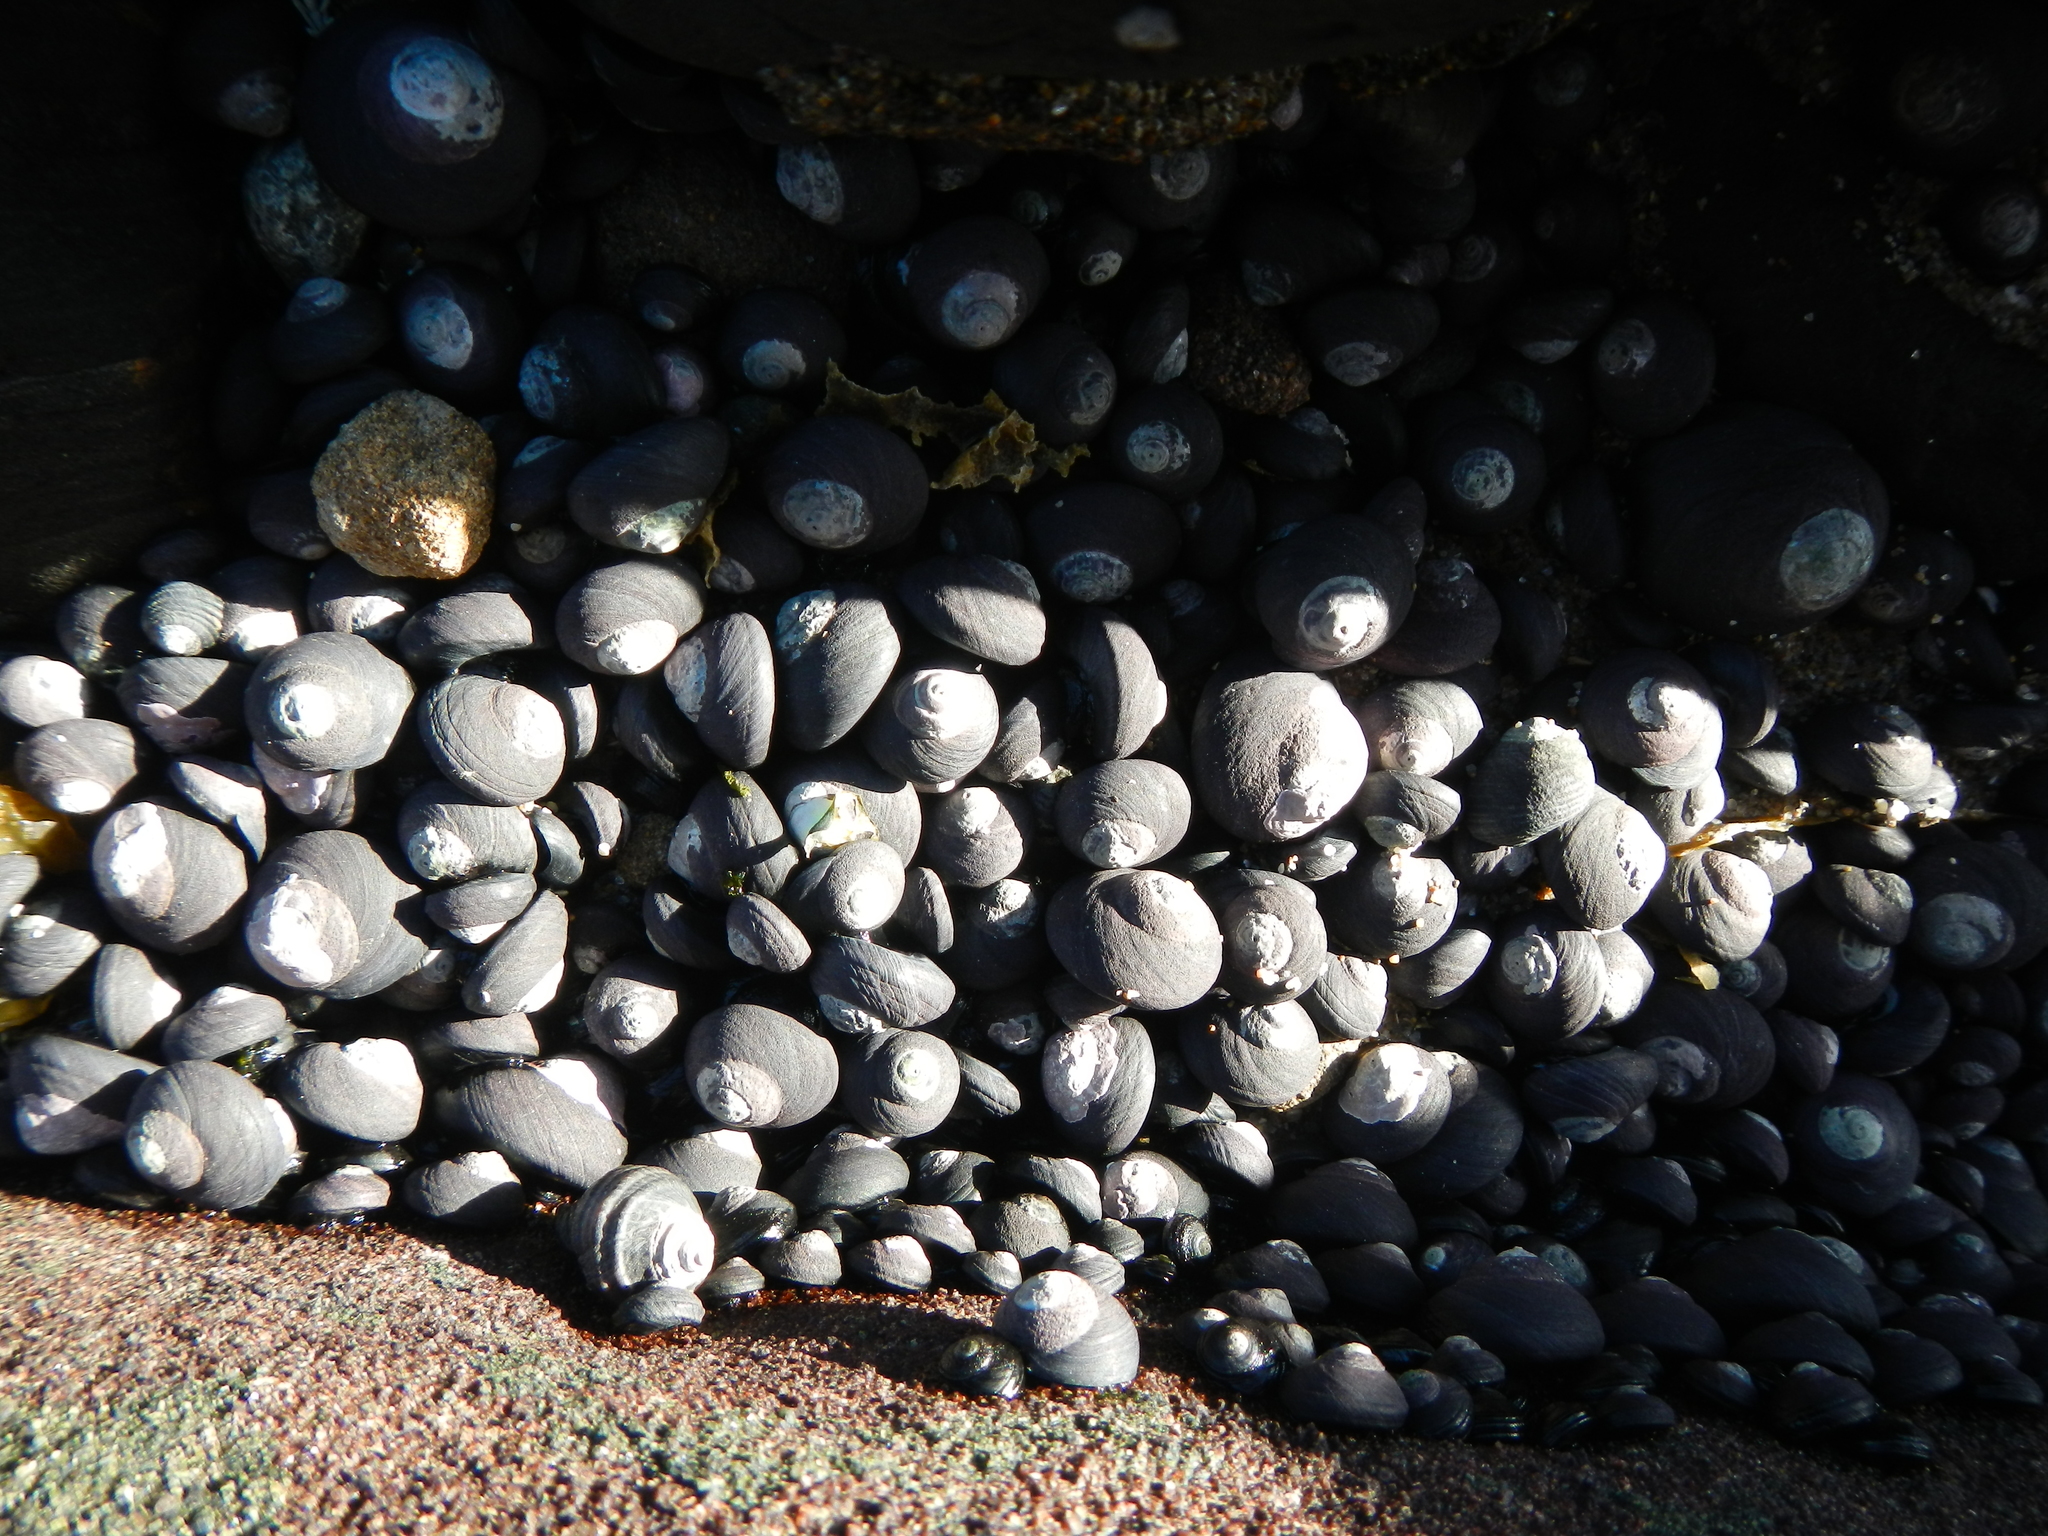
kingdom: Animalia
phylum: Mollusca
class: Gastropoda
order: Trochida
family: Tegulidae
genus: Tegula
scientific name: Tegula atra
